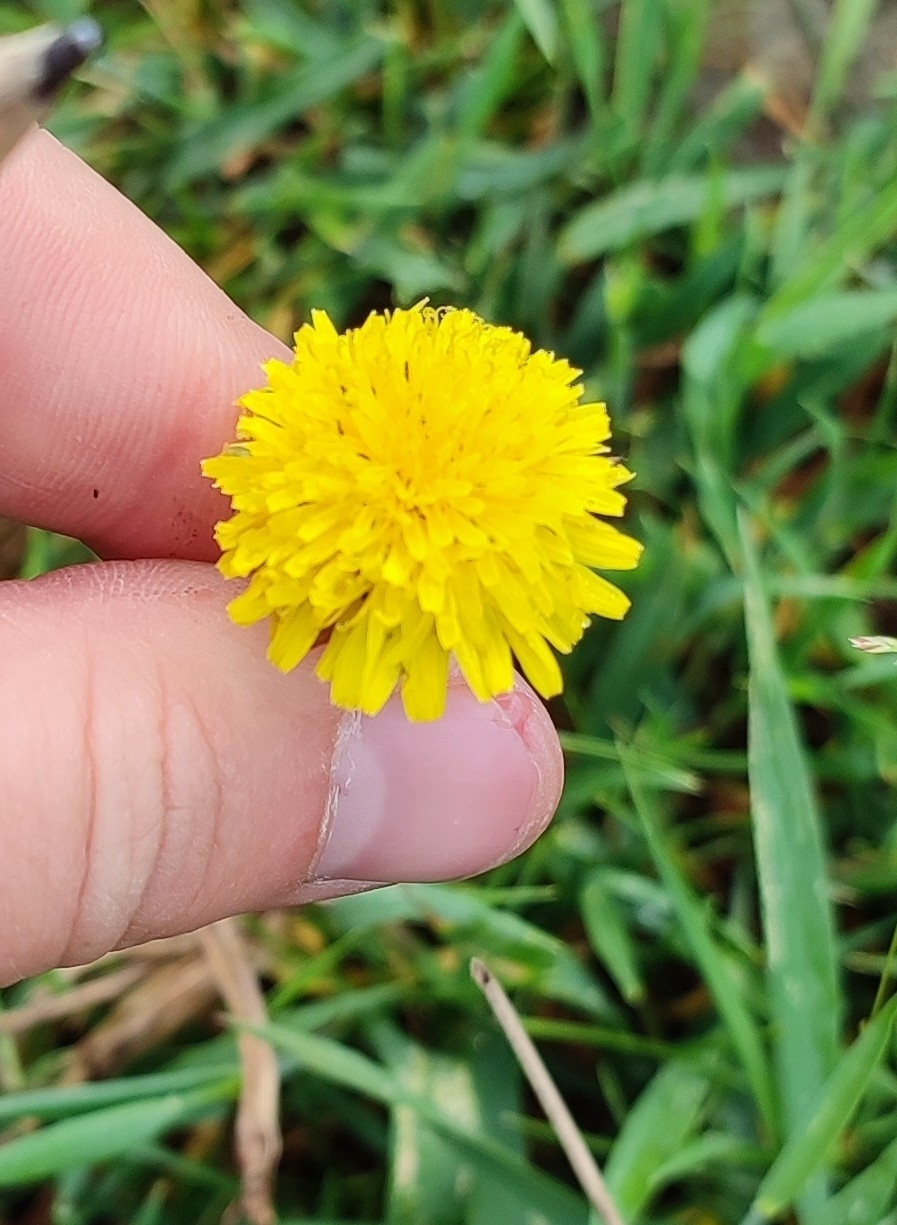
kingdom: Plantae
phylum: Tracheophyta
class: Magnoliopsida
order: Asterales
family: Asteraceae
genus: Taraxacum
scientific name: Taraxacum officinale
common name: Common dandelion
